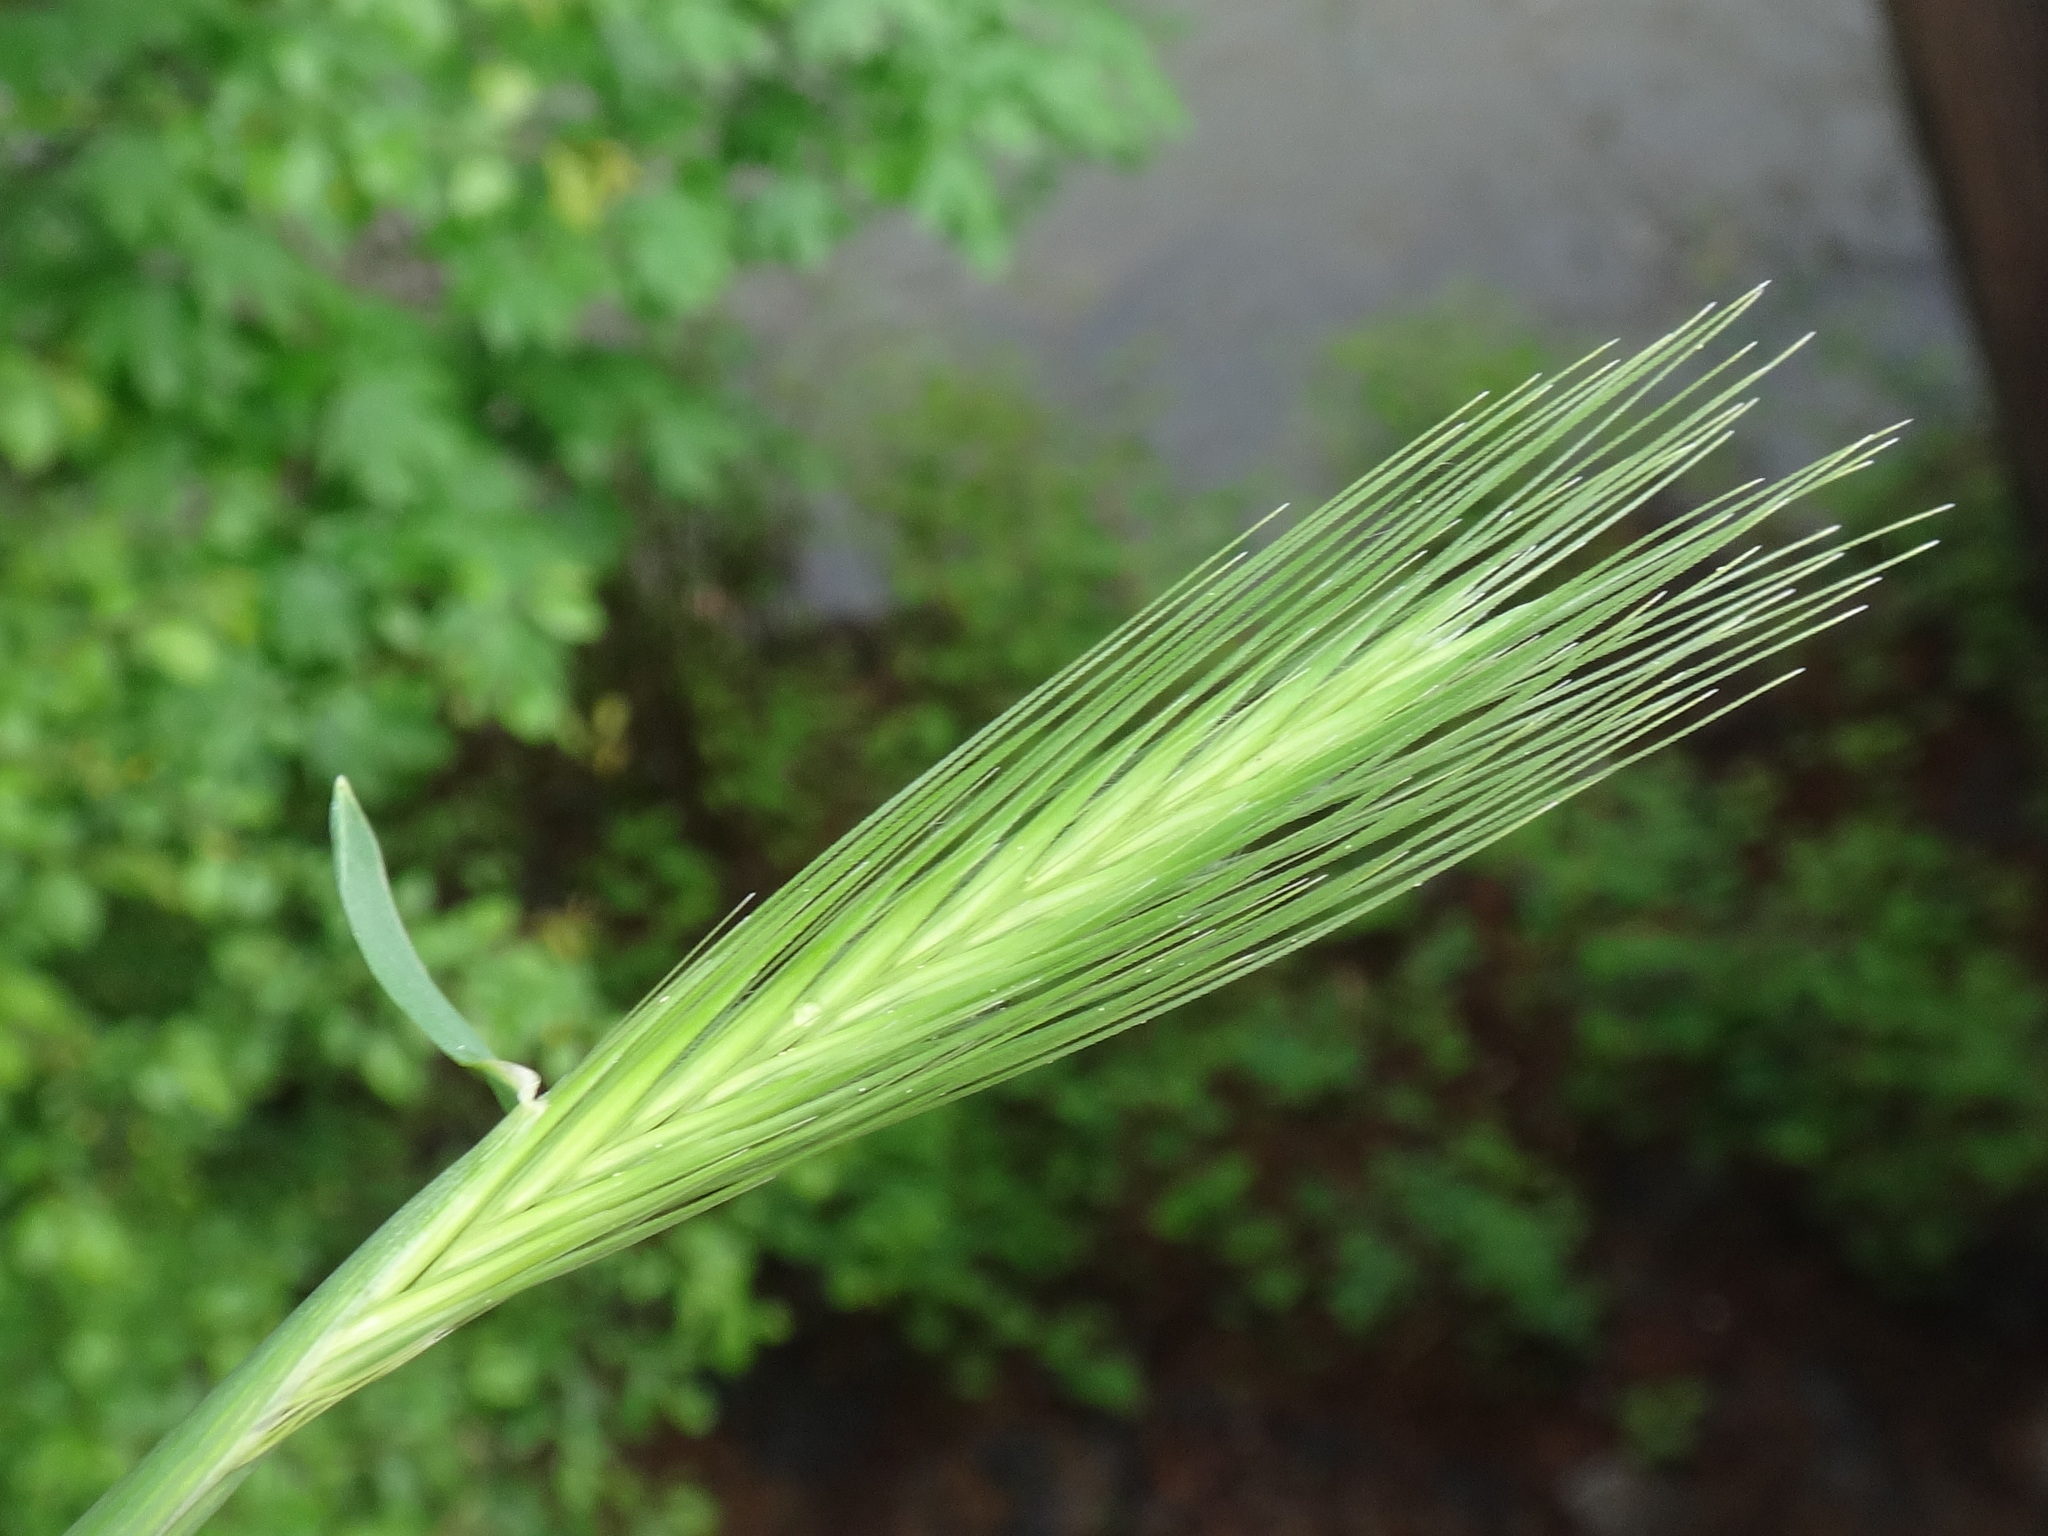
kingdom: Plantae
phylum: Tracheophyta
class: Liliopsida
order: Poales
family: Poaceae
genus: Hordeum
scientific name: Hordeum murinum
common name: Wall barley
